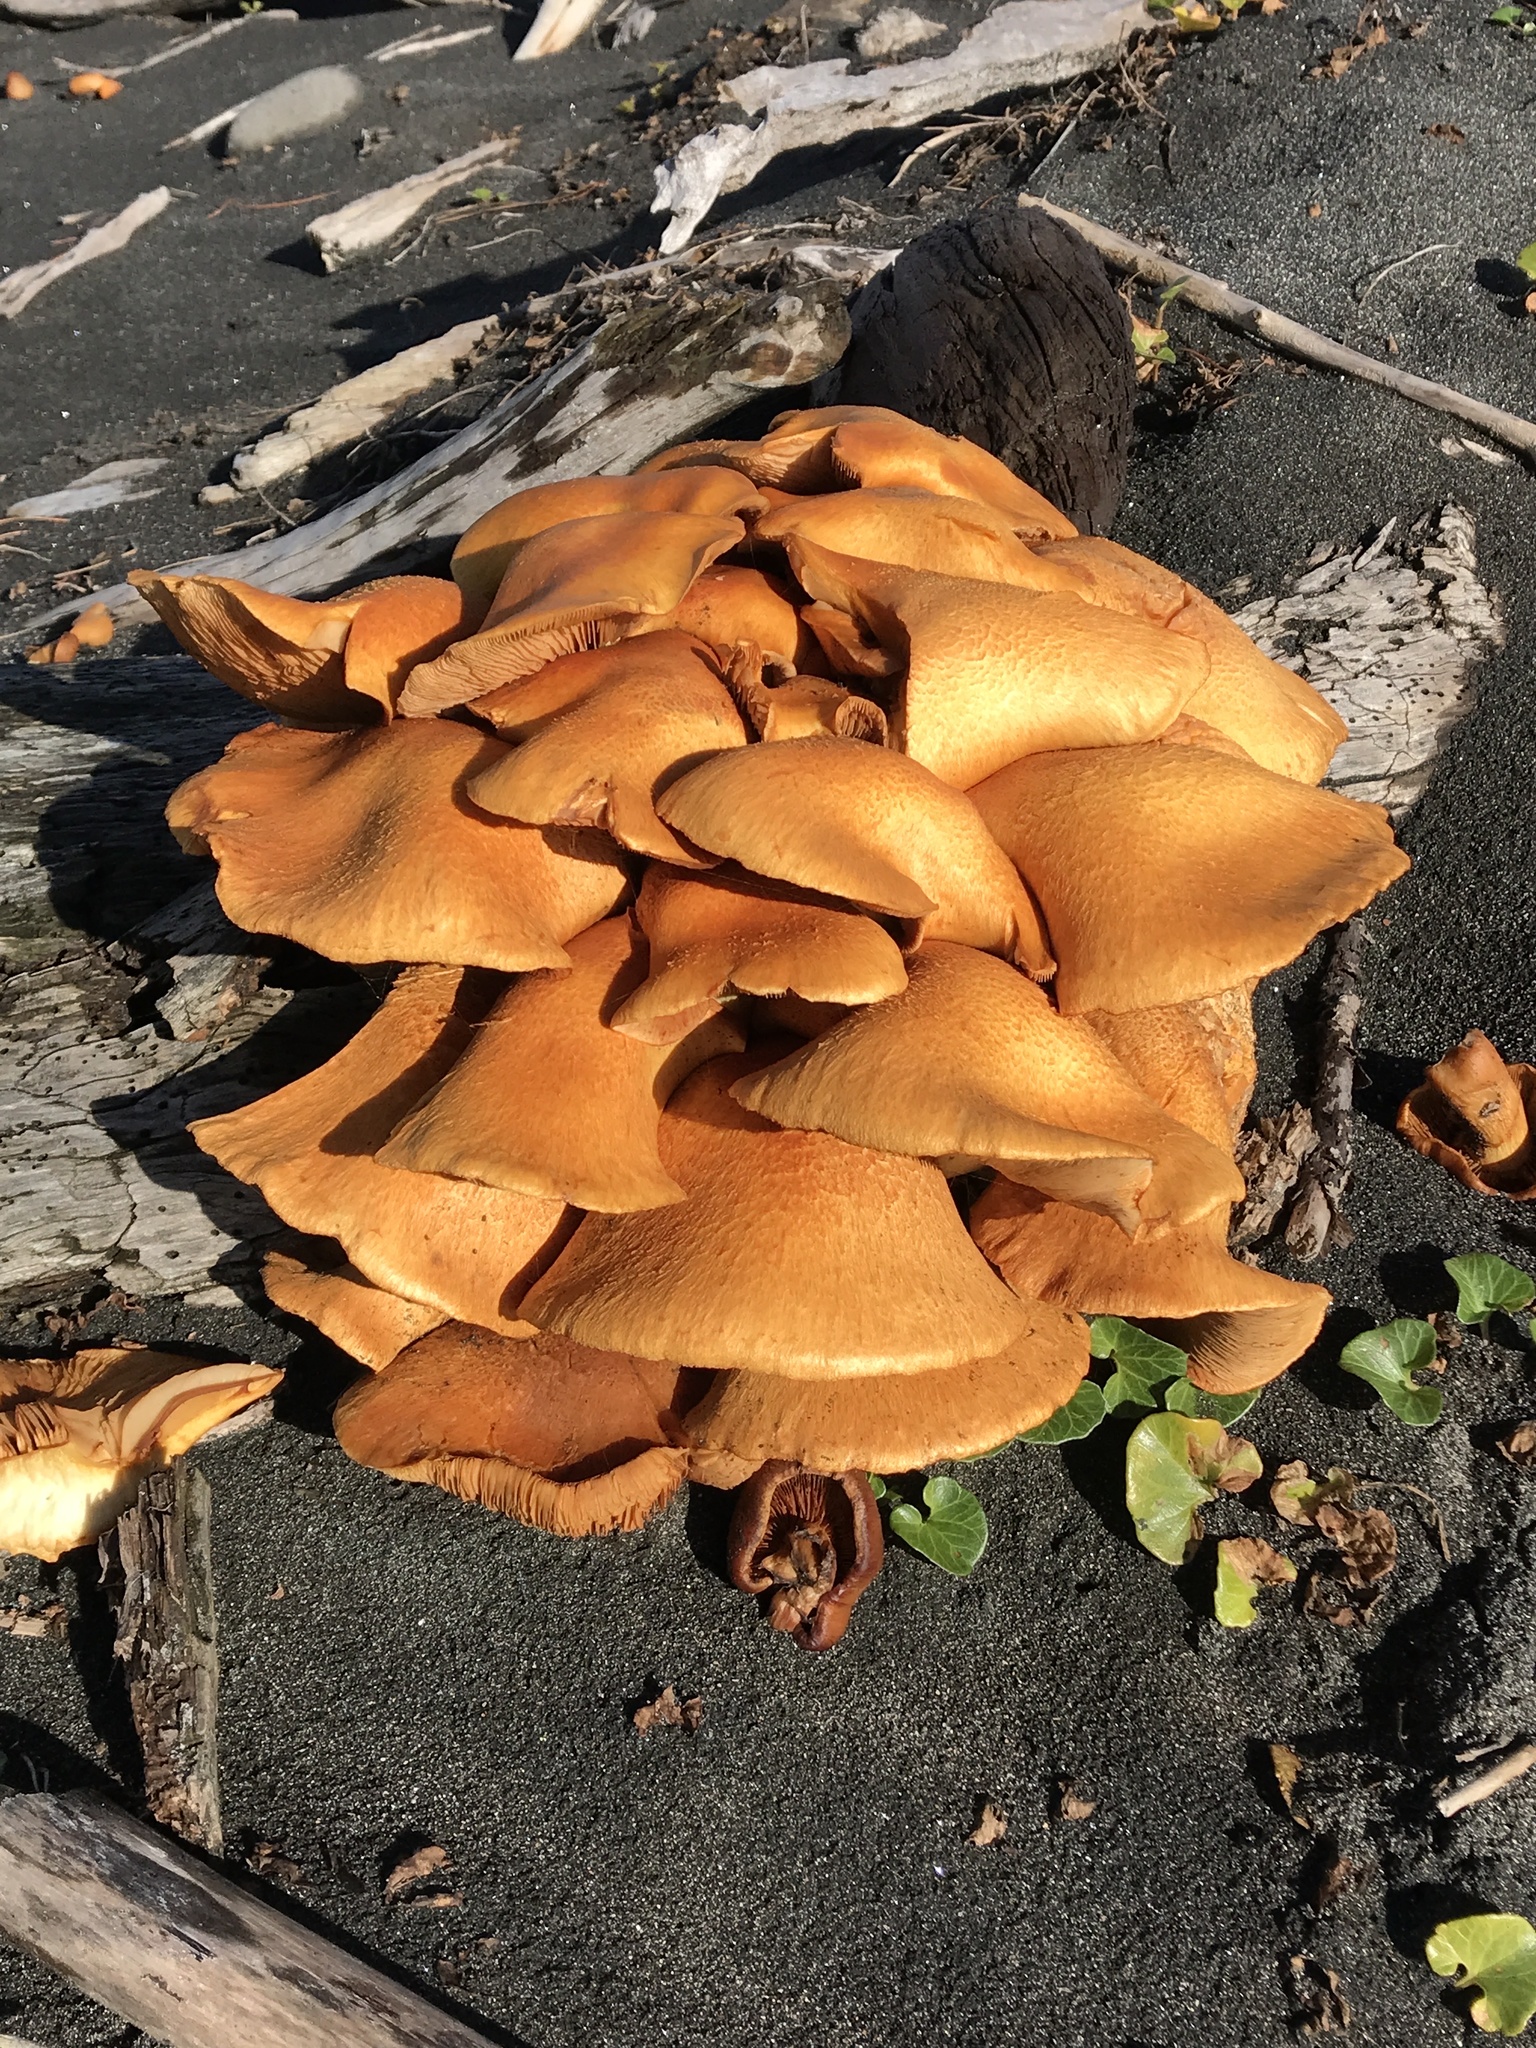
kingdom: Fungi
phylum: Basidiomycota
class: Agaricomycetes
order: Agaricales
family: Hymenogastraceae
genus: Gymnopilus
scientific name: Gymnopilus junonius
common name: Spectacular rustgill
